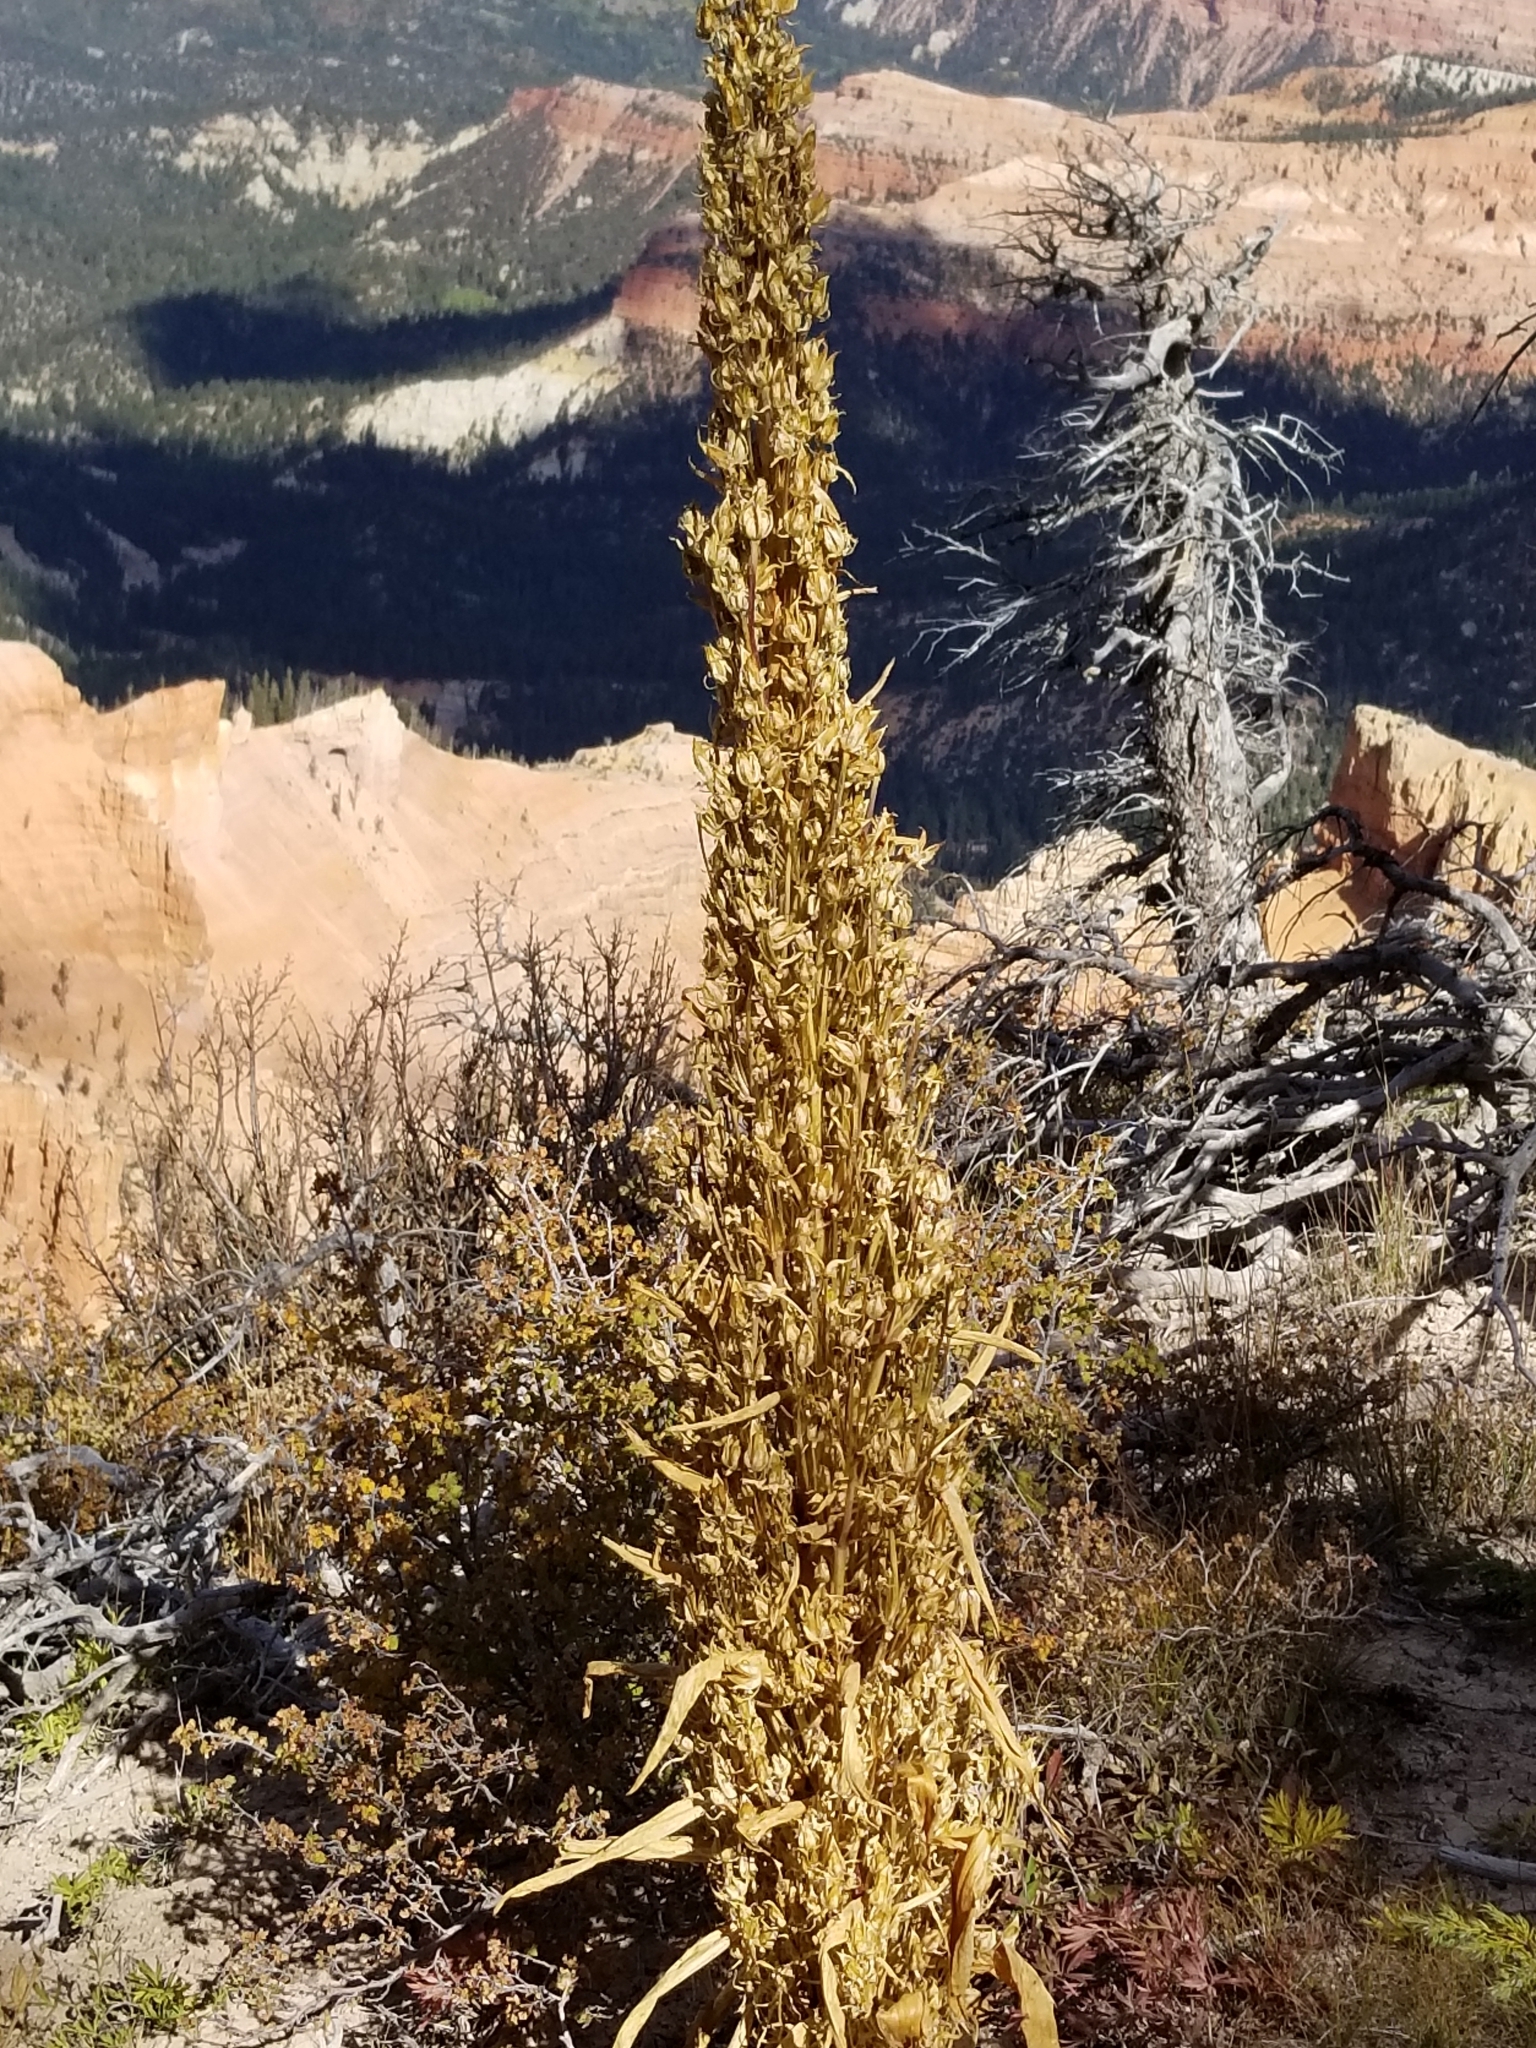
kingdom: Plantae
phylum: Tracheophyta
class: Magnoliopsida
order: Gentianales
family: Gentianaceae
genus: Frasera
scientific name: Frasera speciosa
